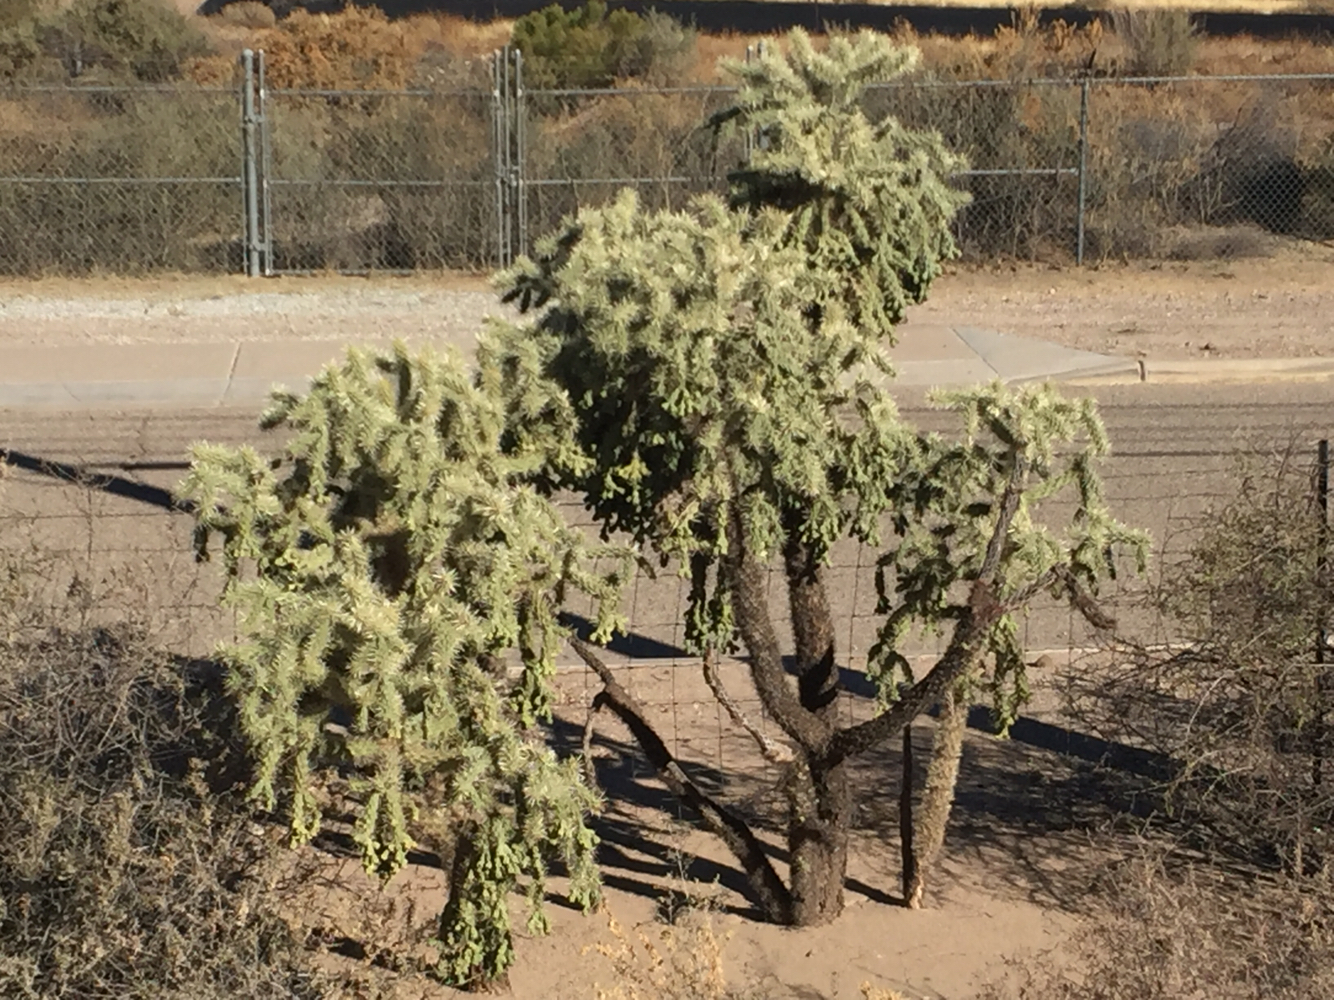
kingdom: Plantae
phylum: Tracheophyta
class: Magnoliopsida
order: Caryophyllales
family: Cactaceae
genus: Cylindropuntia
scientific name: Cylindropuntia fulgida
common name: Jumping cholla
